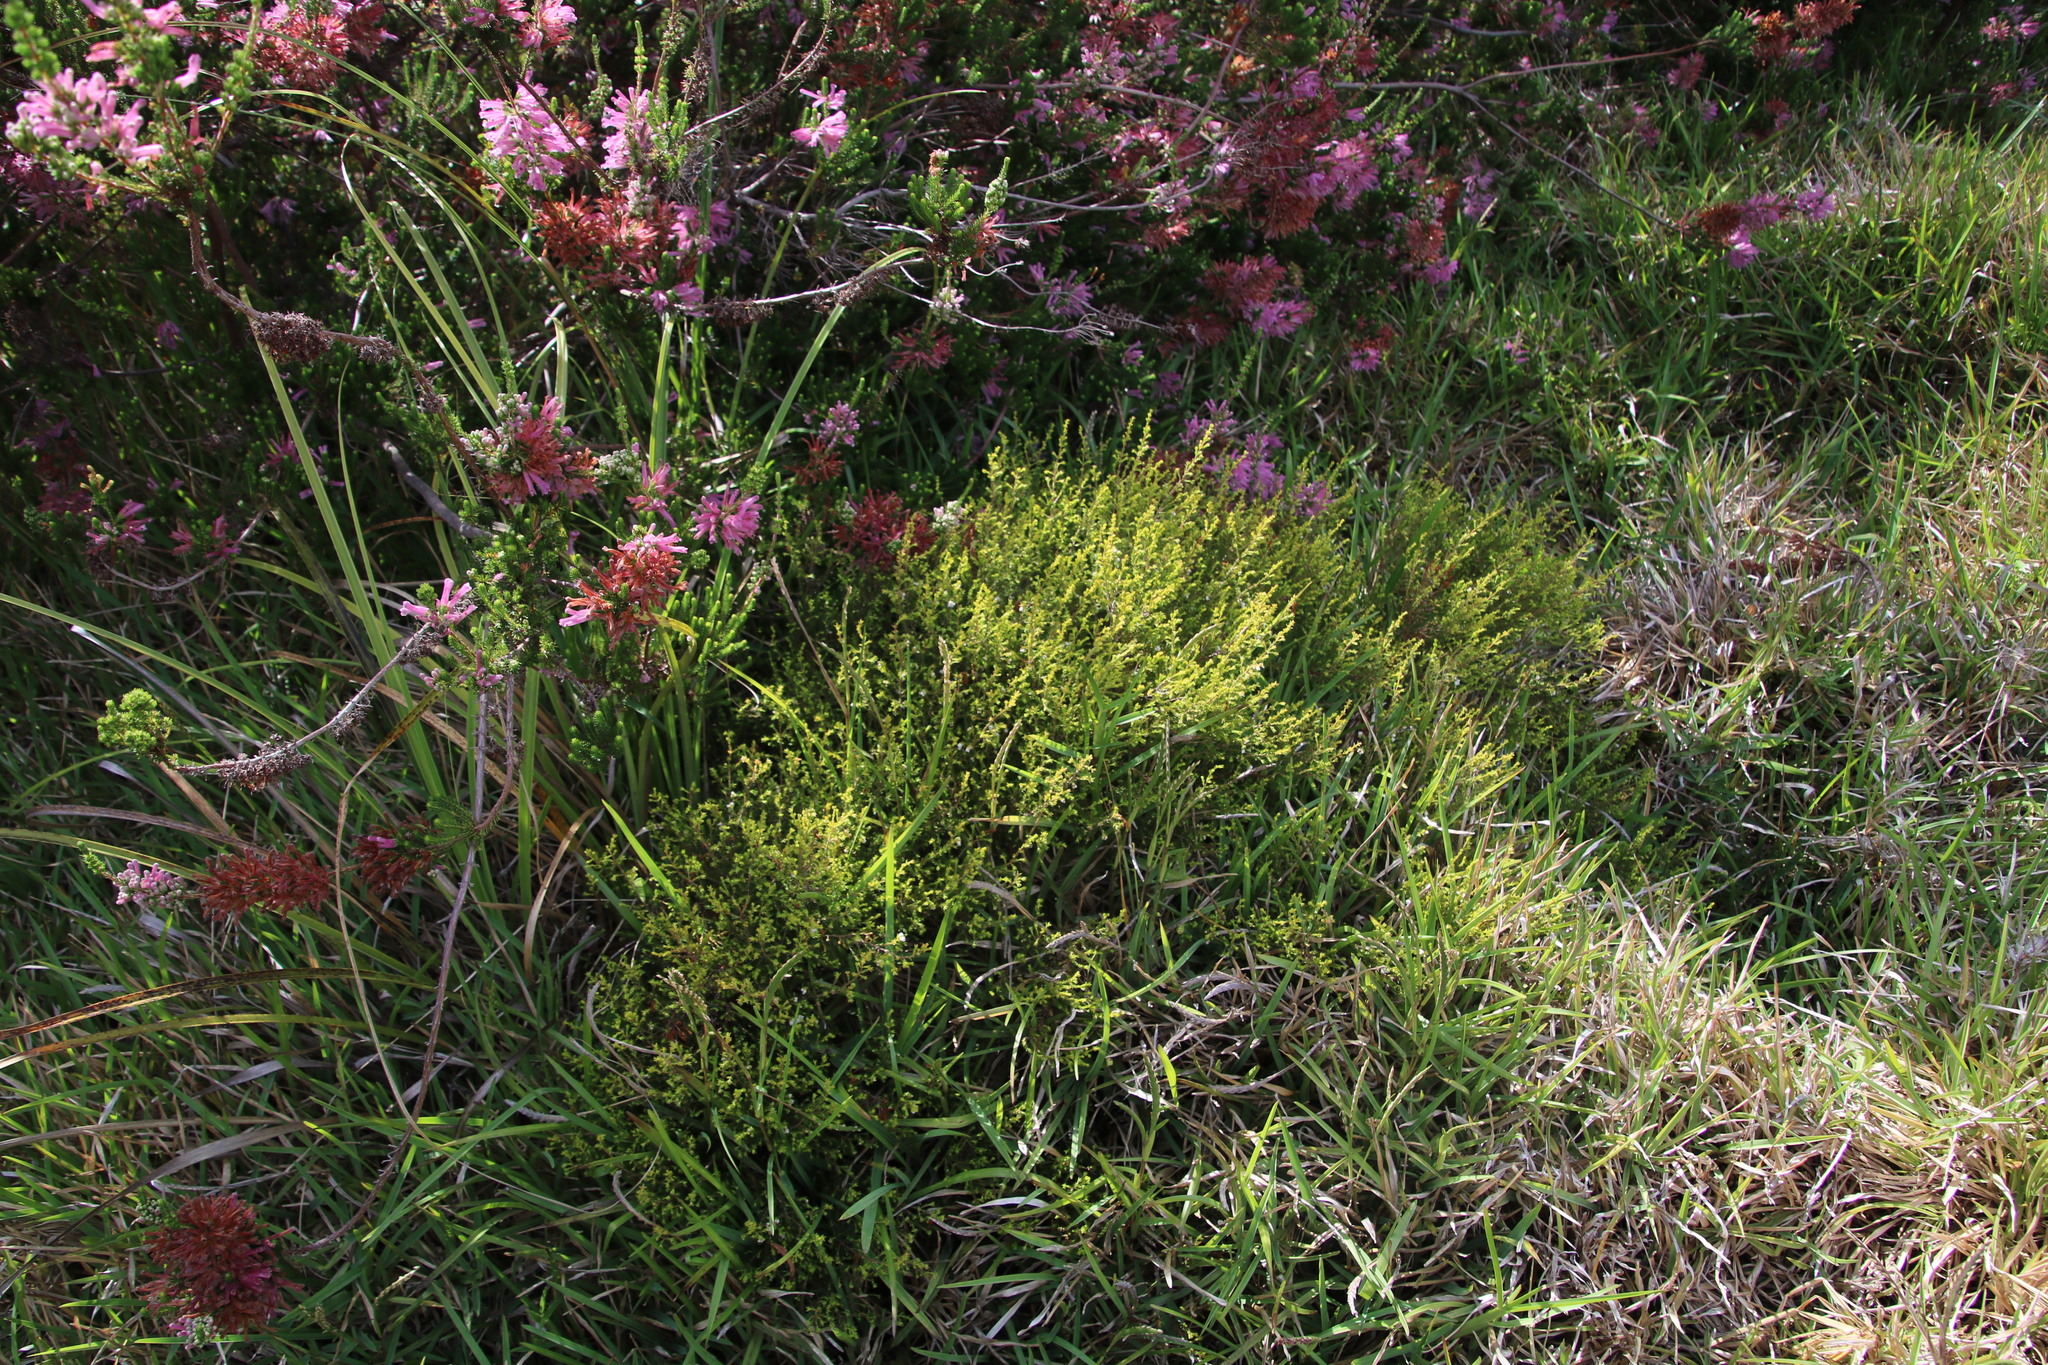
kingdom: Plantae
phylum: Tracheophyta
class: Magnoliopsida
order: Ericales
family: Ericaceae
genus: Erica
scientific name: Erica margaritacea
